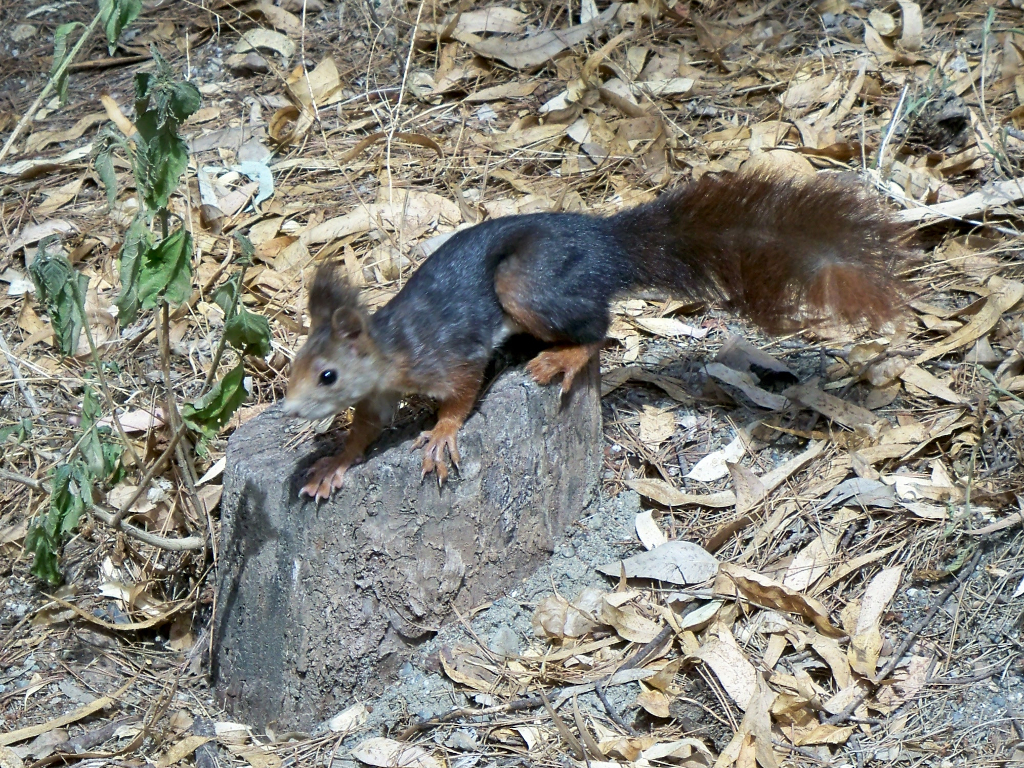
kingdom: Animalia
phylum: Chordata
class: Mammalia
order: Rodentia
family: Sciuridae
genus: Sciurus
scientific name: Sciurus vulgaris
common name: Eurasian red squirrel
